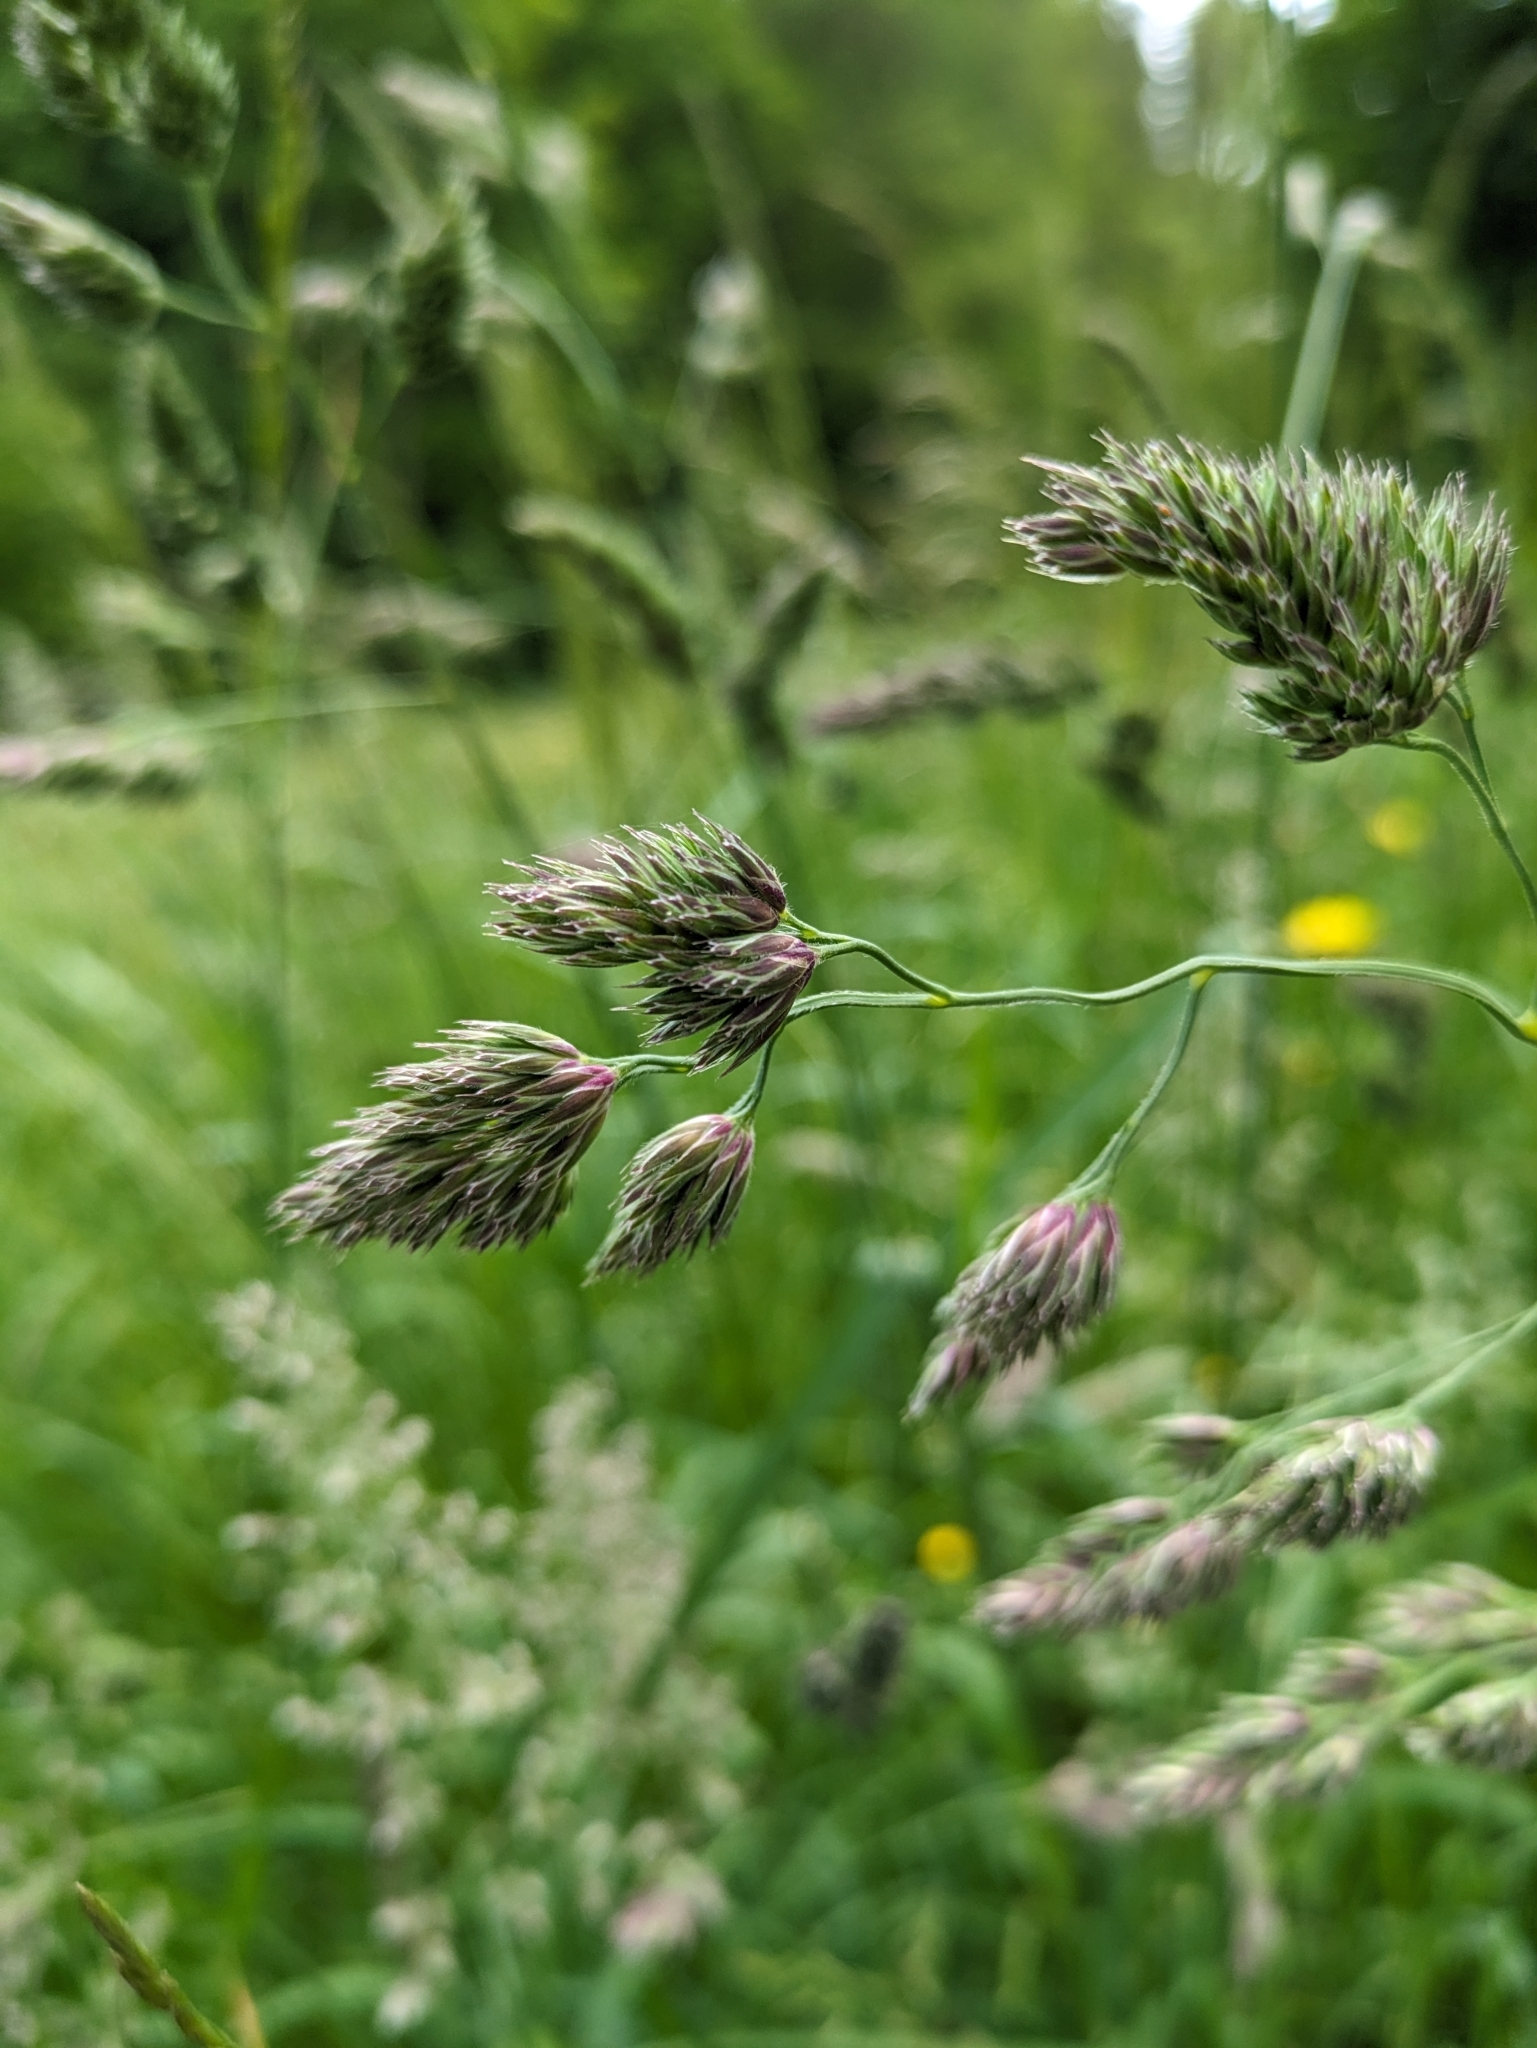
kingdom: Plantae
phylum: Tracheophyta
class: Liliopsida
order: Poales
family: Poaceae
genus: Dactylis
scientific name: Dactylis glomerata
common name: Orchardgrass
